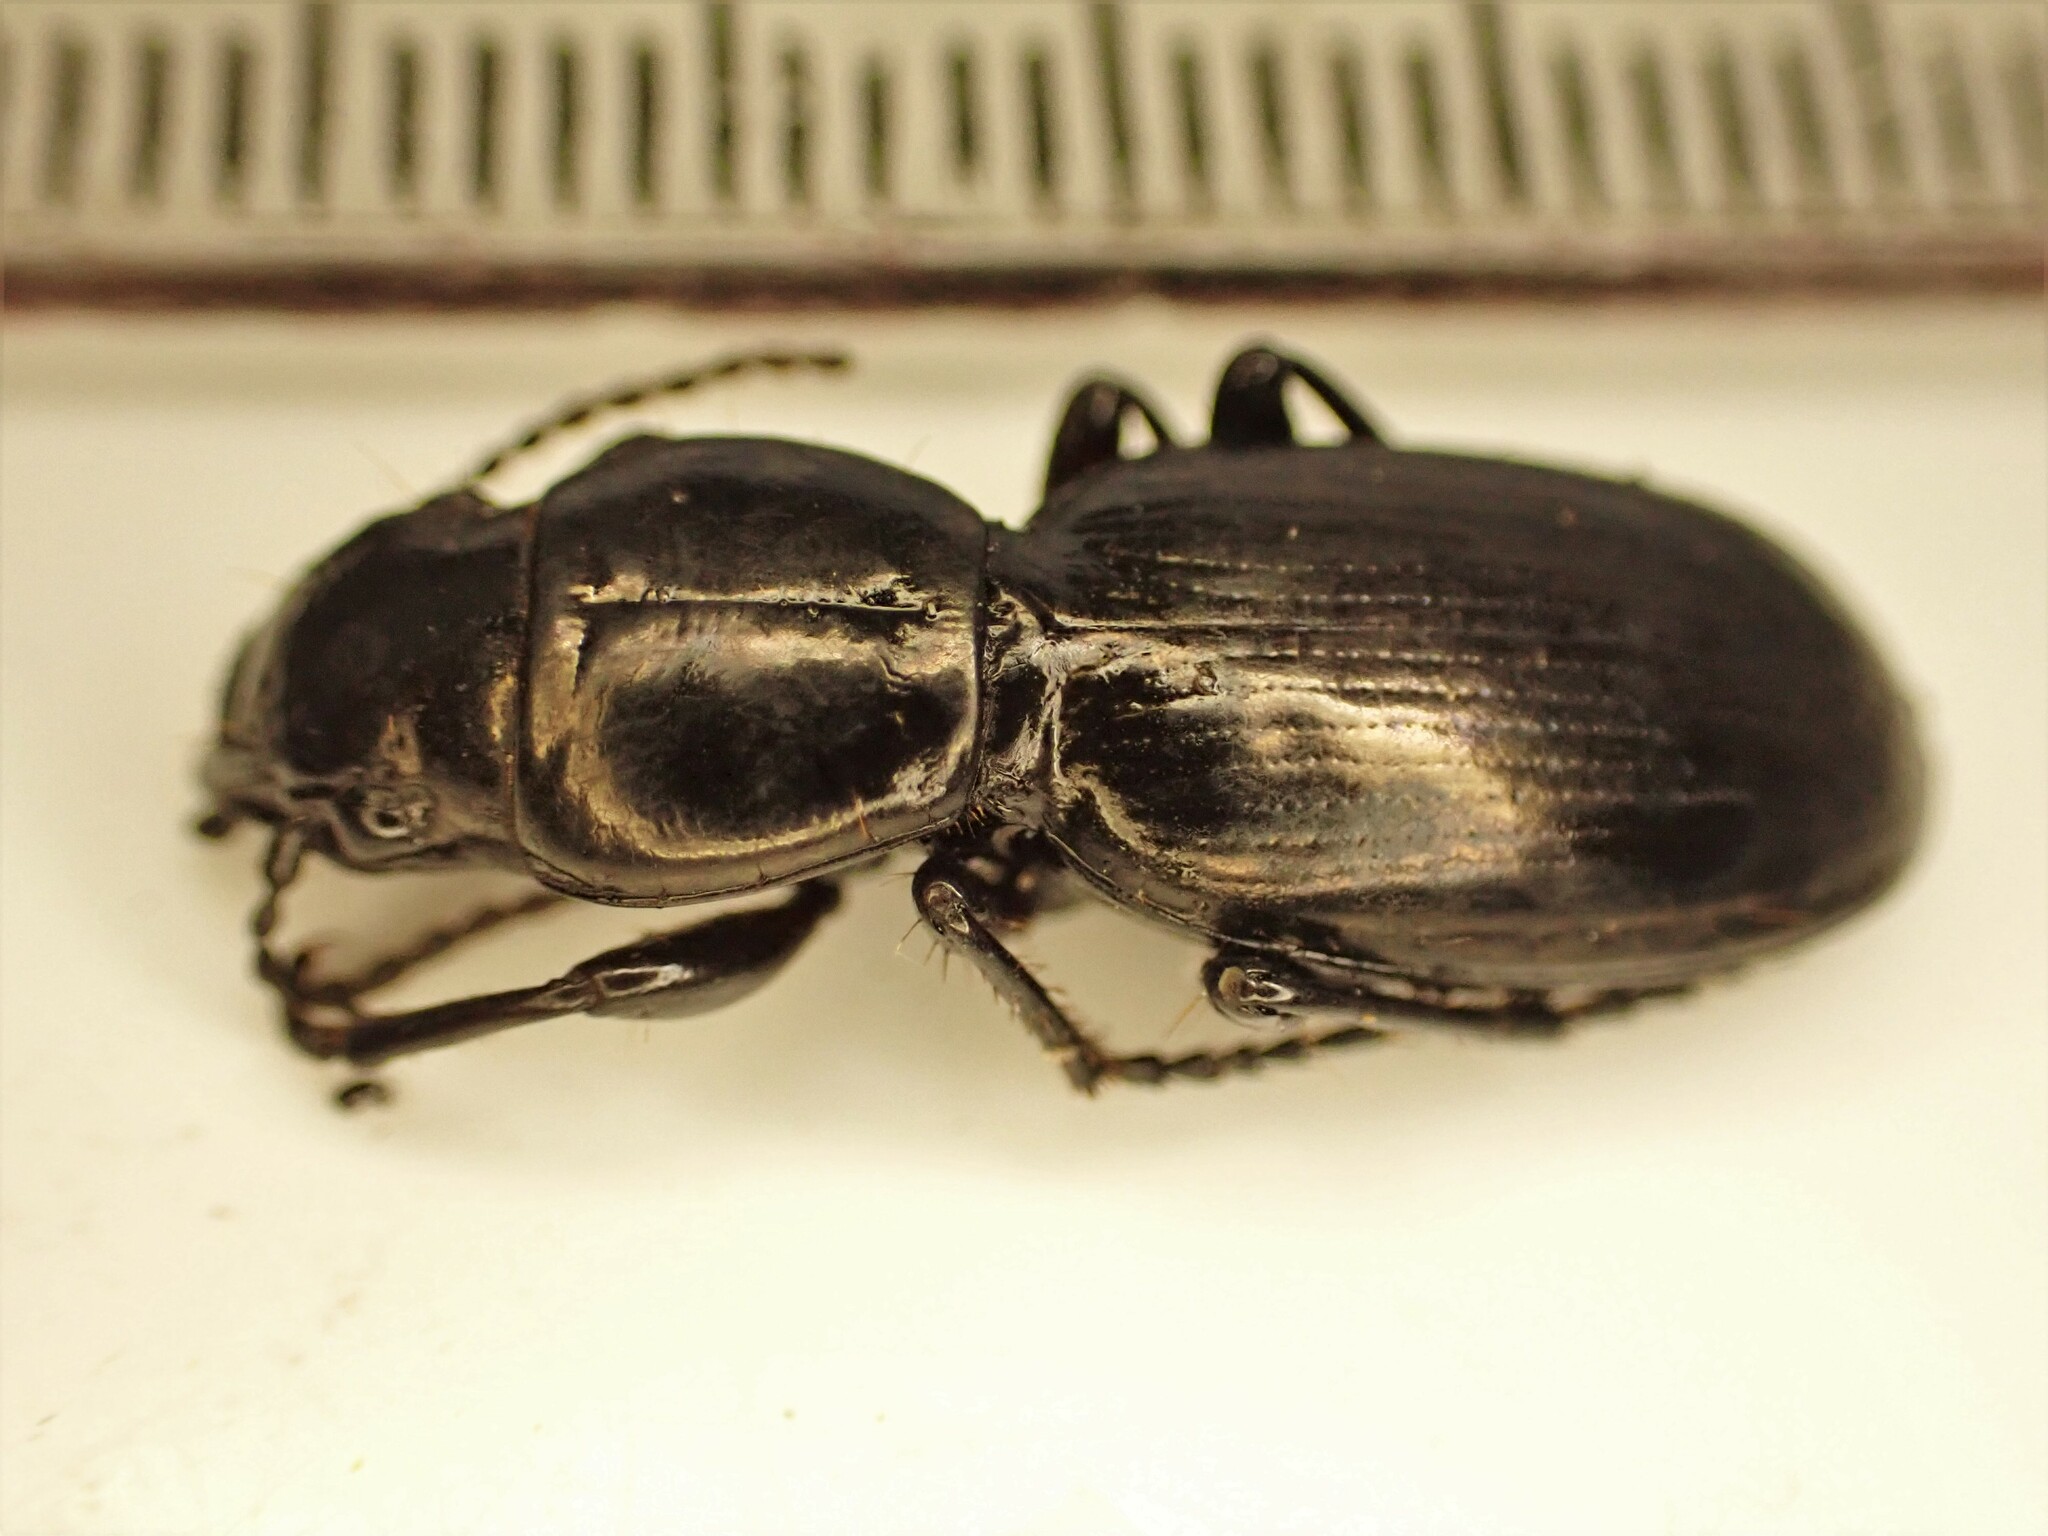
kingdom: Animalia
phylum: Arthropoda
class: Insecta
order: Coleoptera
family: Carabidae
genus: Oregus
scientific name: Oregus aereus
